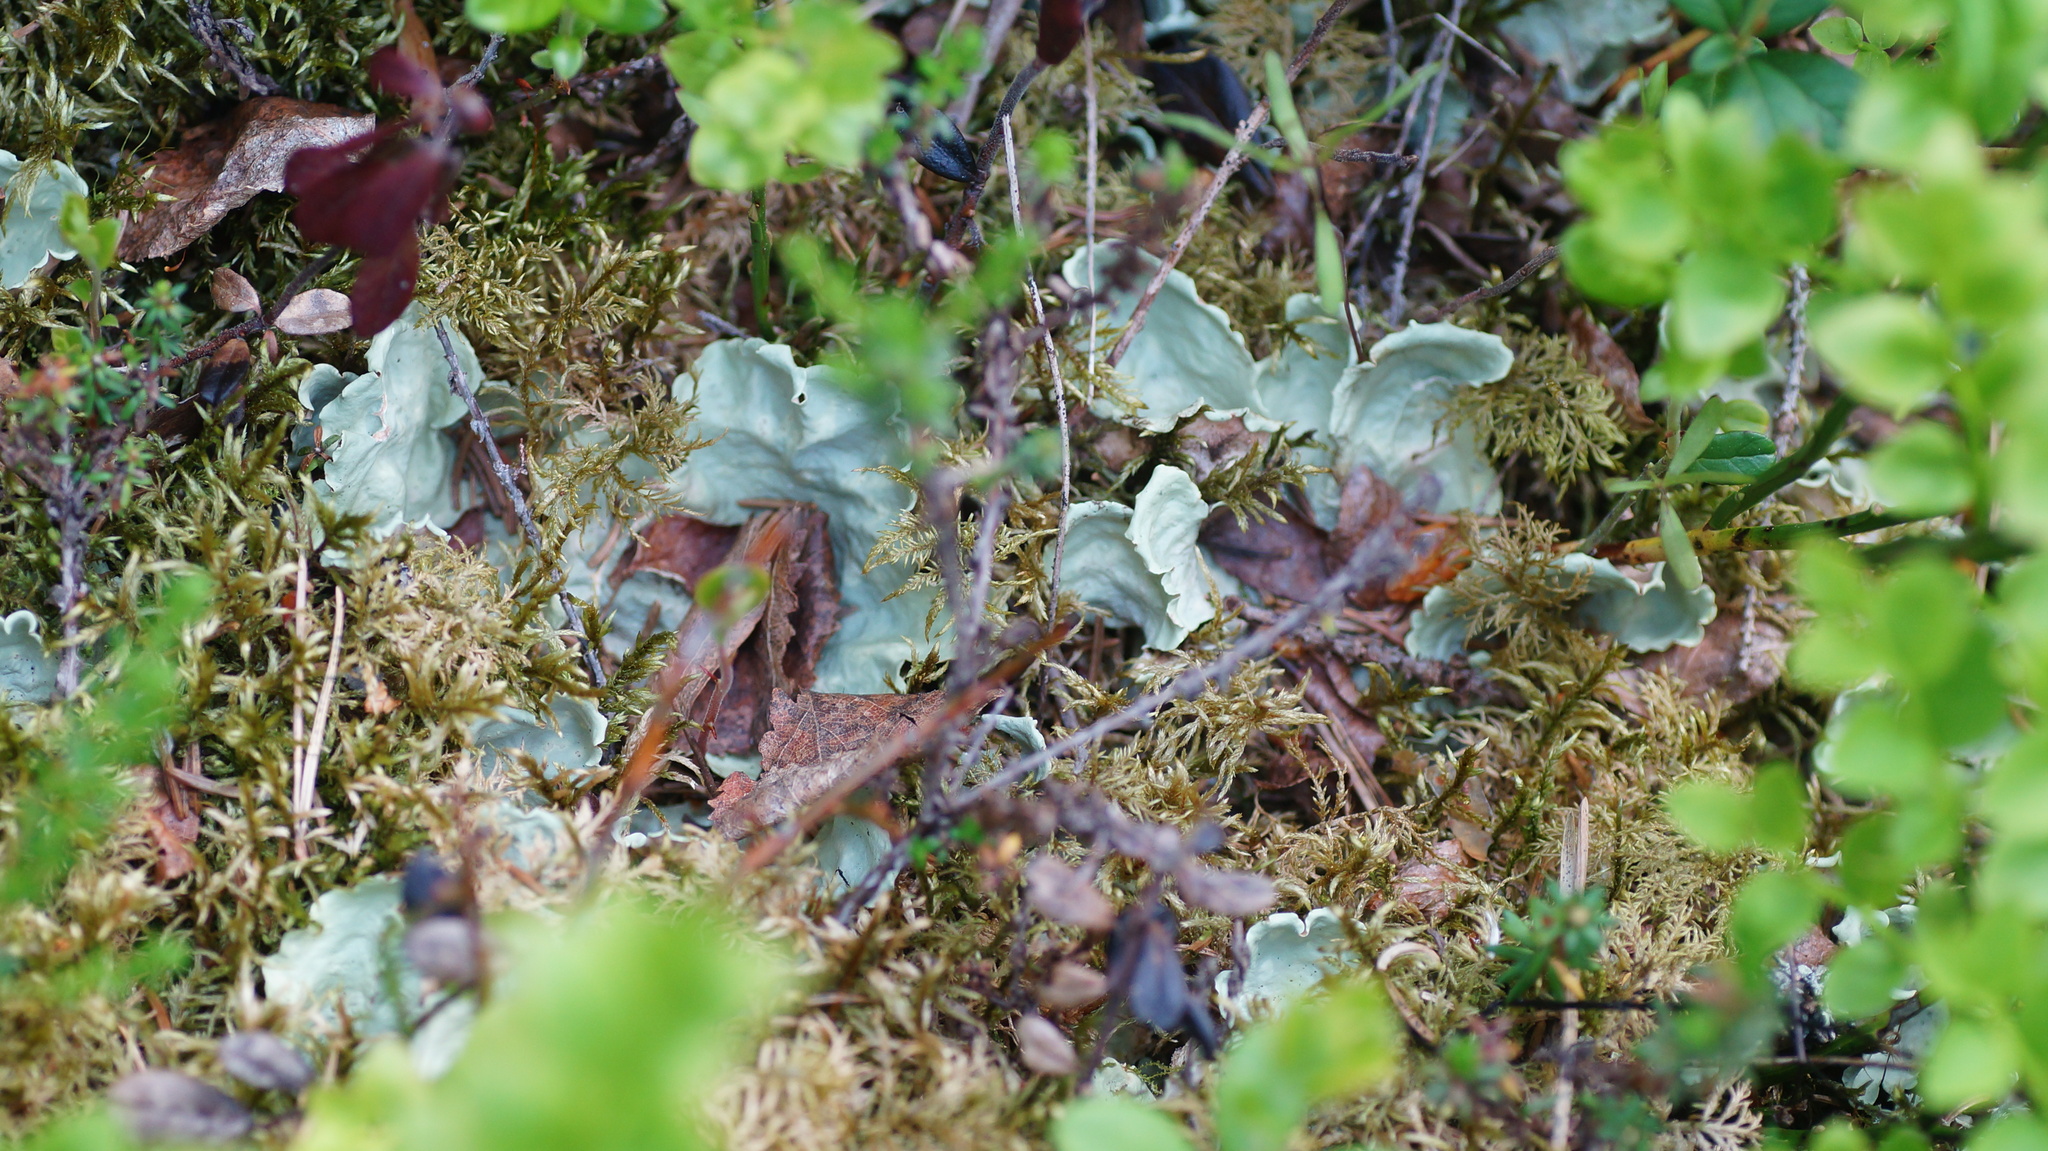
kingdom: Fungi
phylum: Ascomycota
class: Lecanoromycetes
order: Peltigerales
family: Nephromataceae
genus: Nephroma
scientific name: Nephroma arcticum
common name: Arctic kidney-lichen
